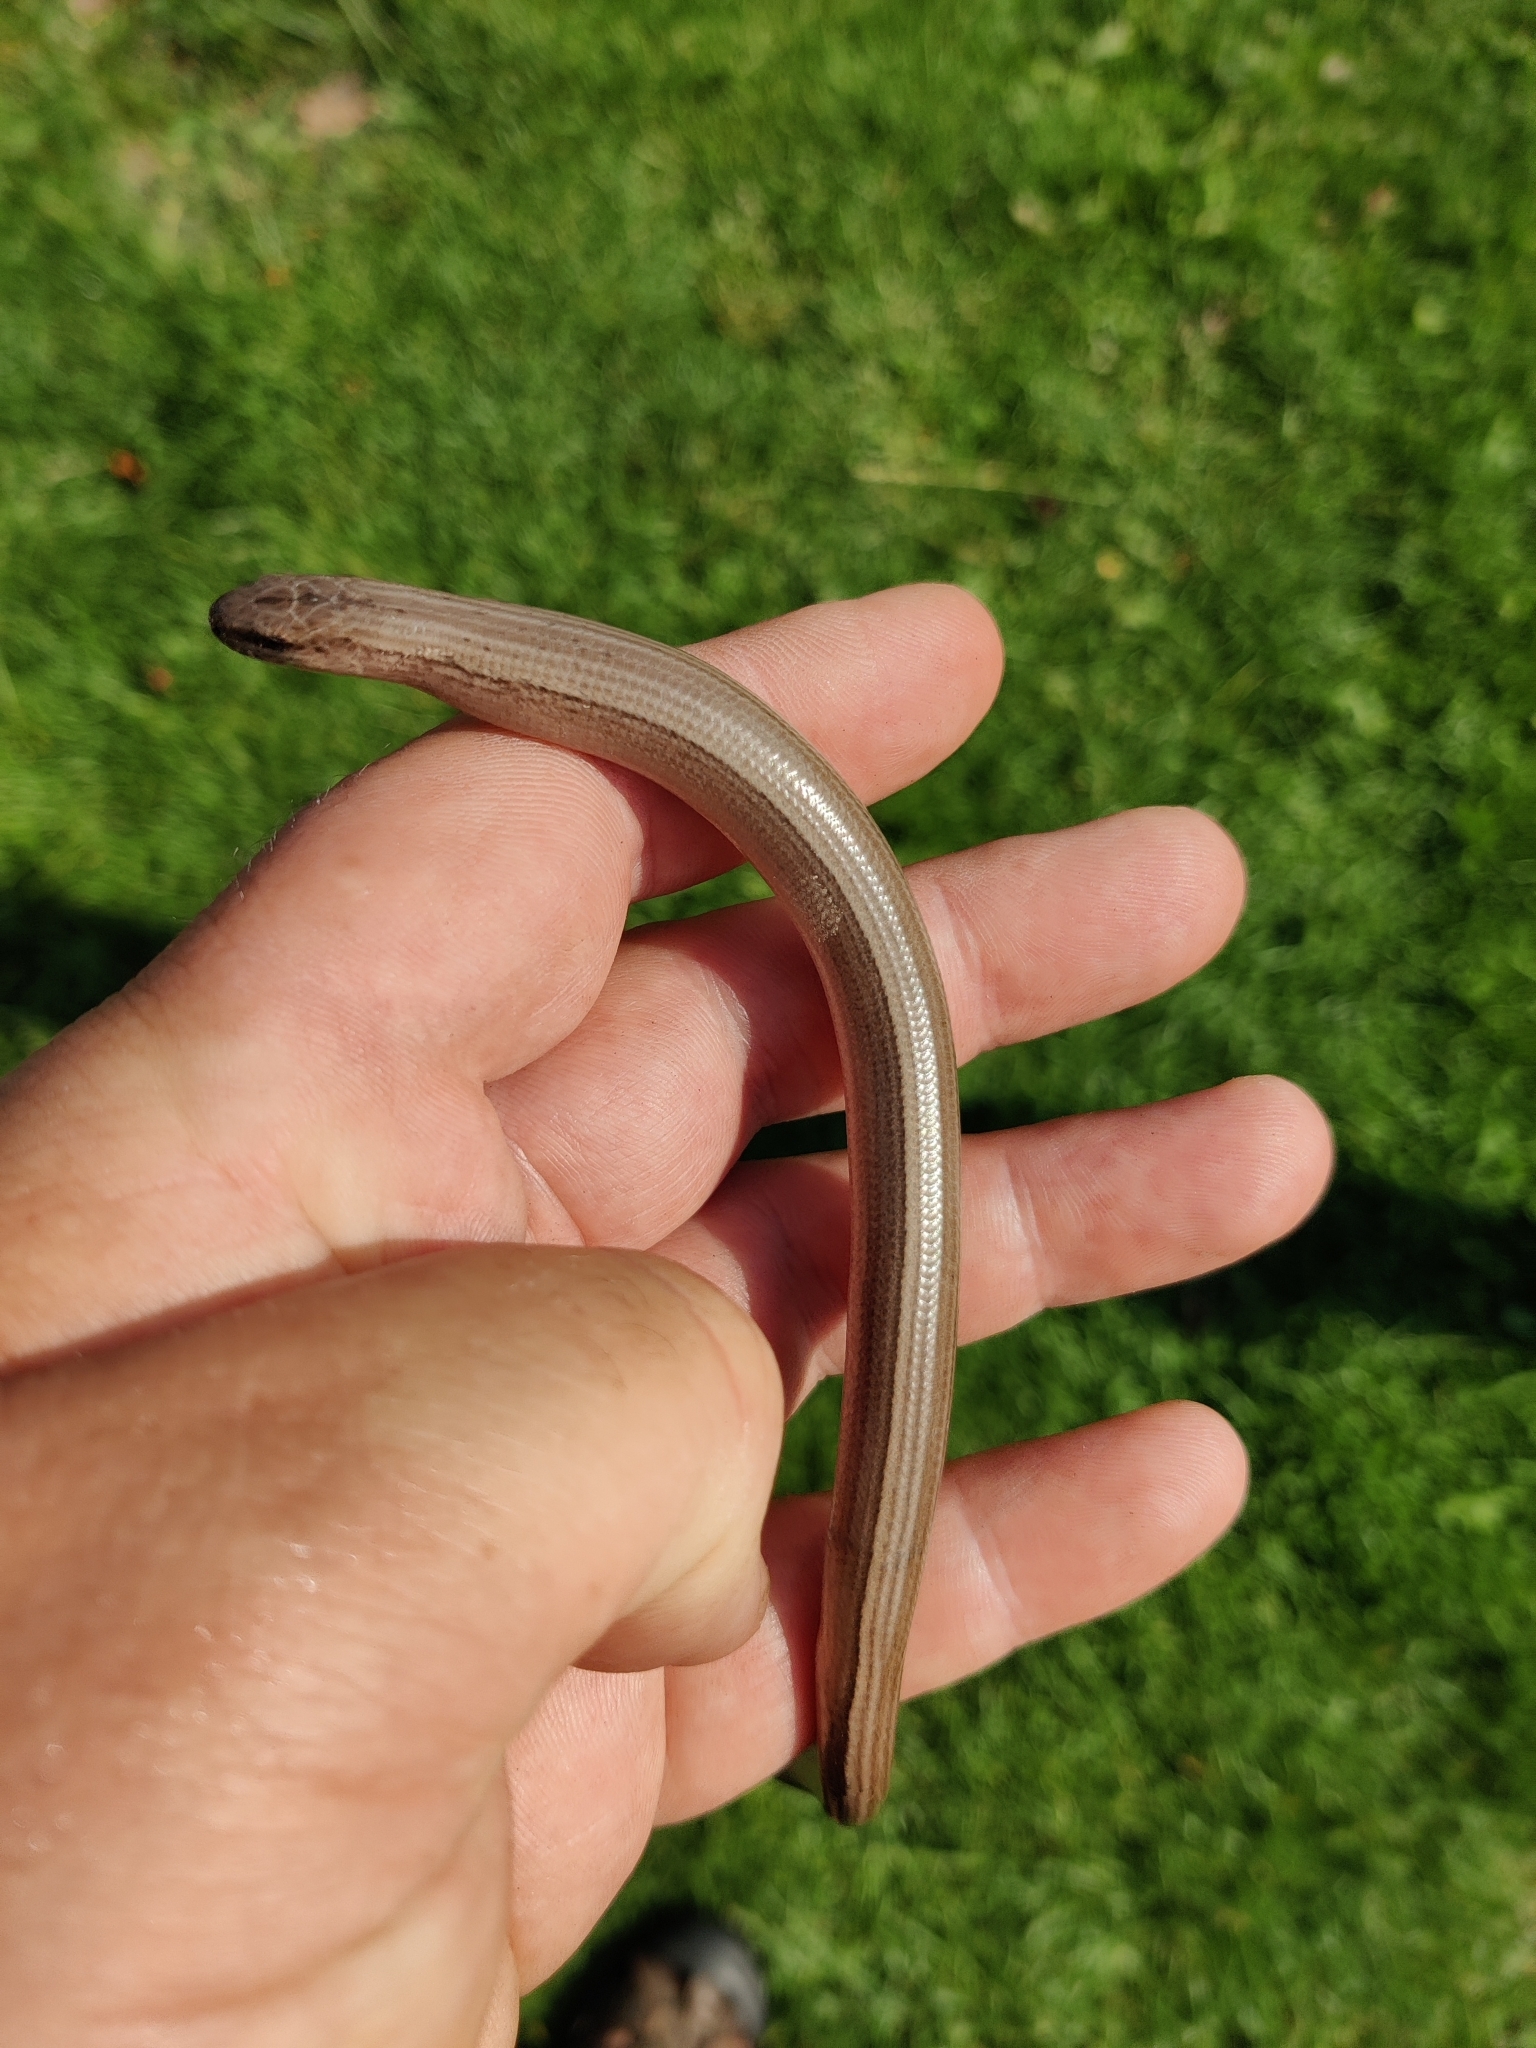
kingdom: Animalia
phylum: Chordata
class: Squamata
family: Anguidae
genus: Anguis
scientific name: Anguis fragilis
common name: Slow worm
